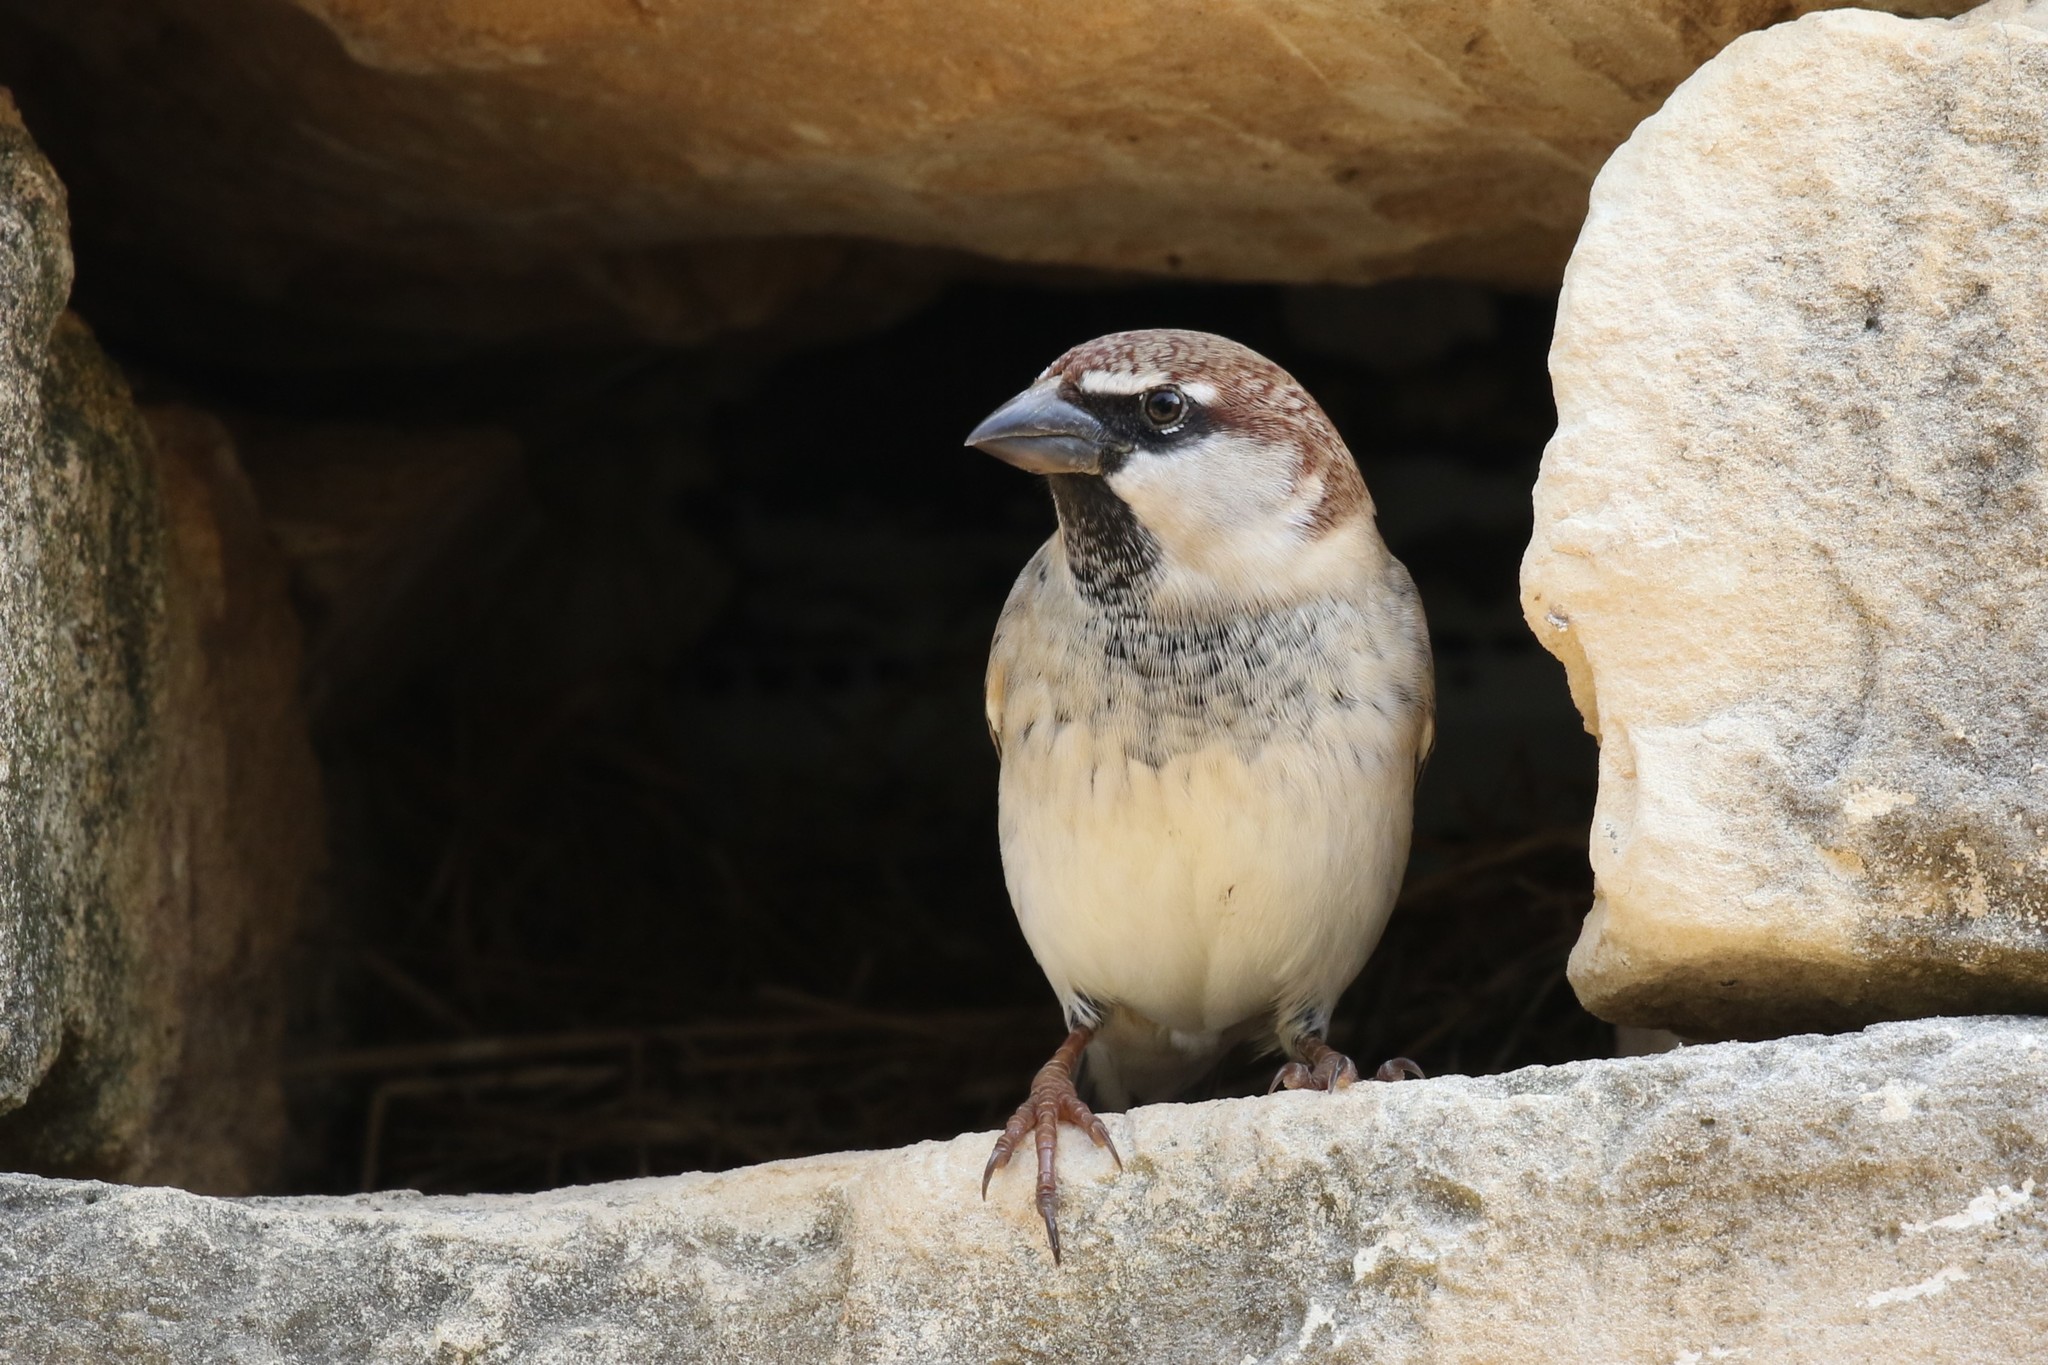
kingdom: Animalia
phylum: Chordata
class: Aves
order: Passeriformes
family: Passeridae
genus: Passer
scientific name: Passer hispaniolensis
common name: Spanish sparrow
